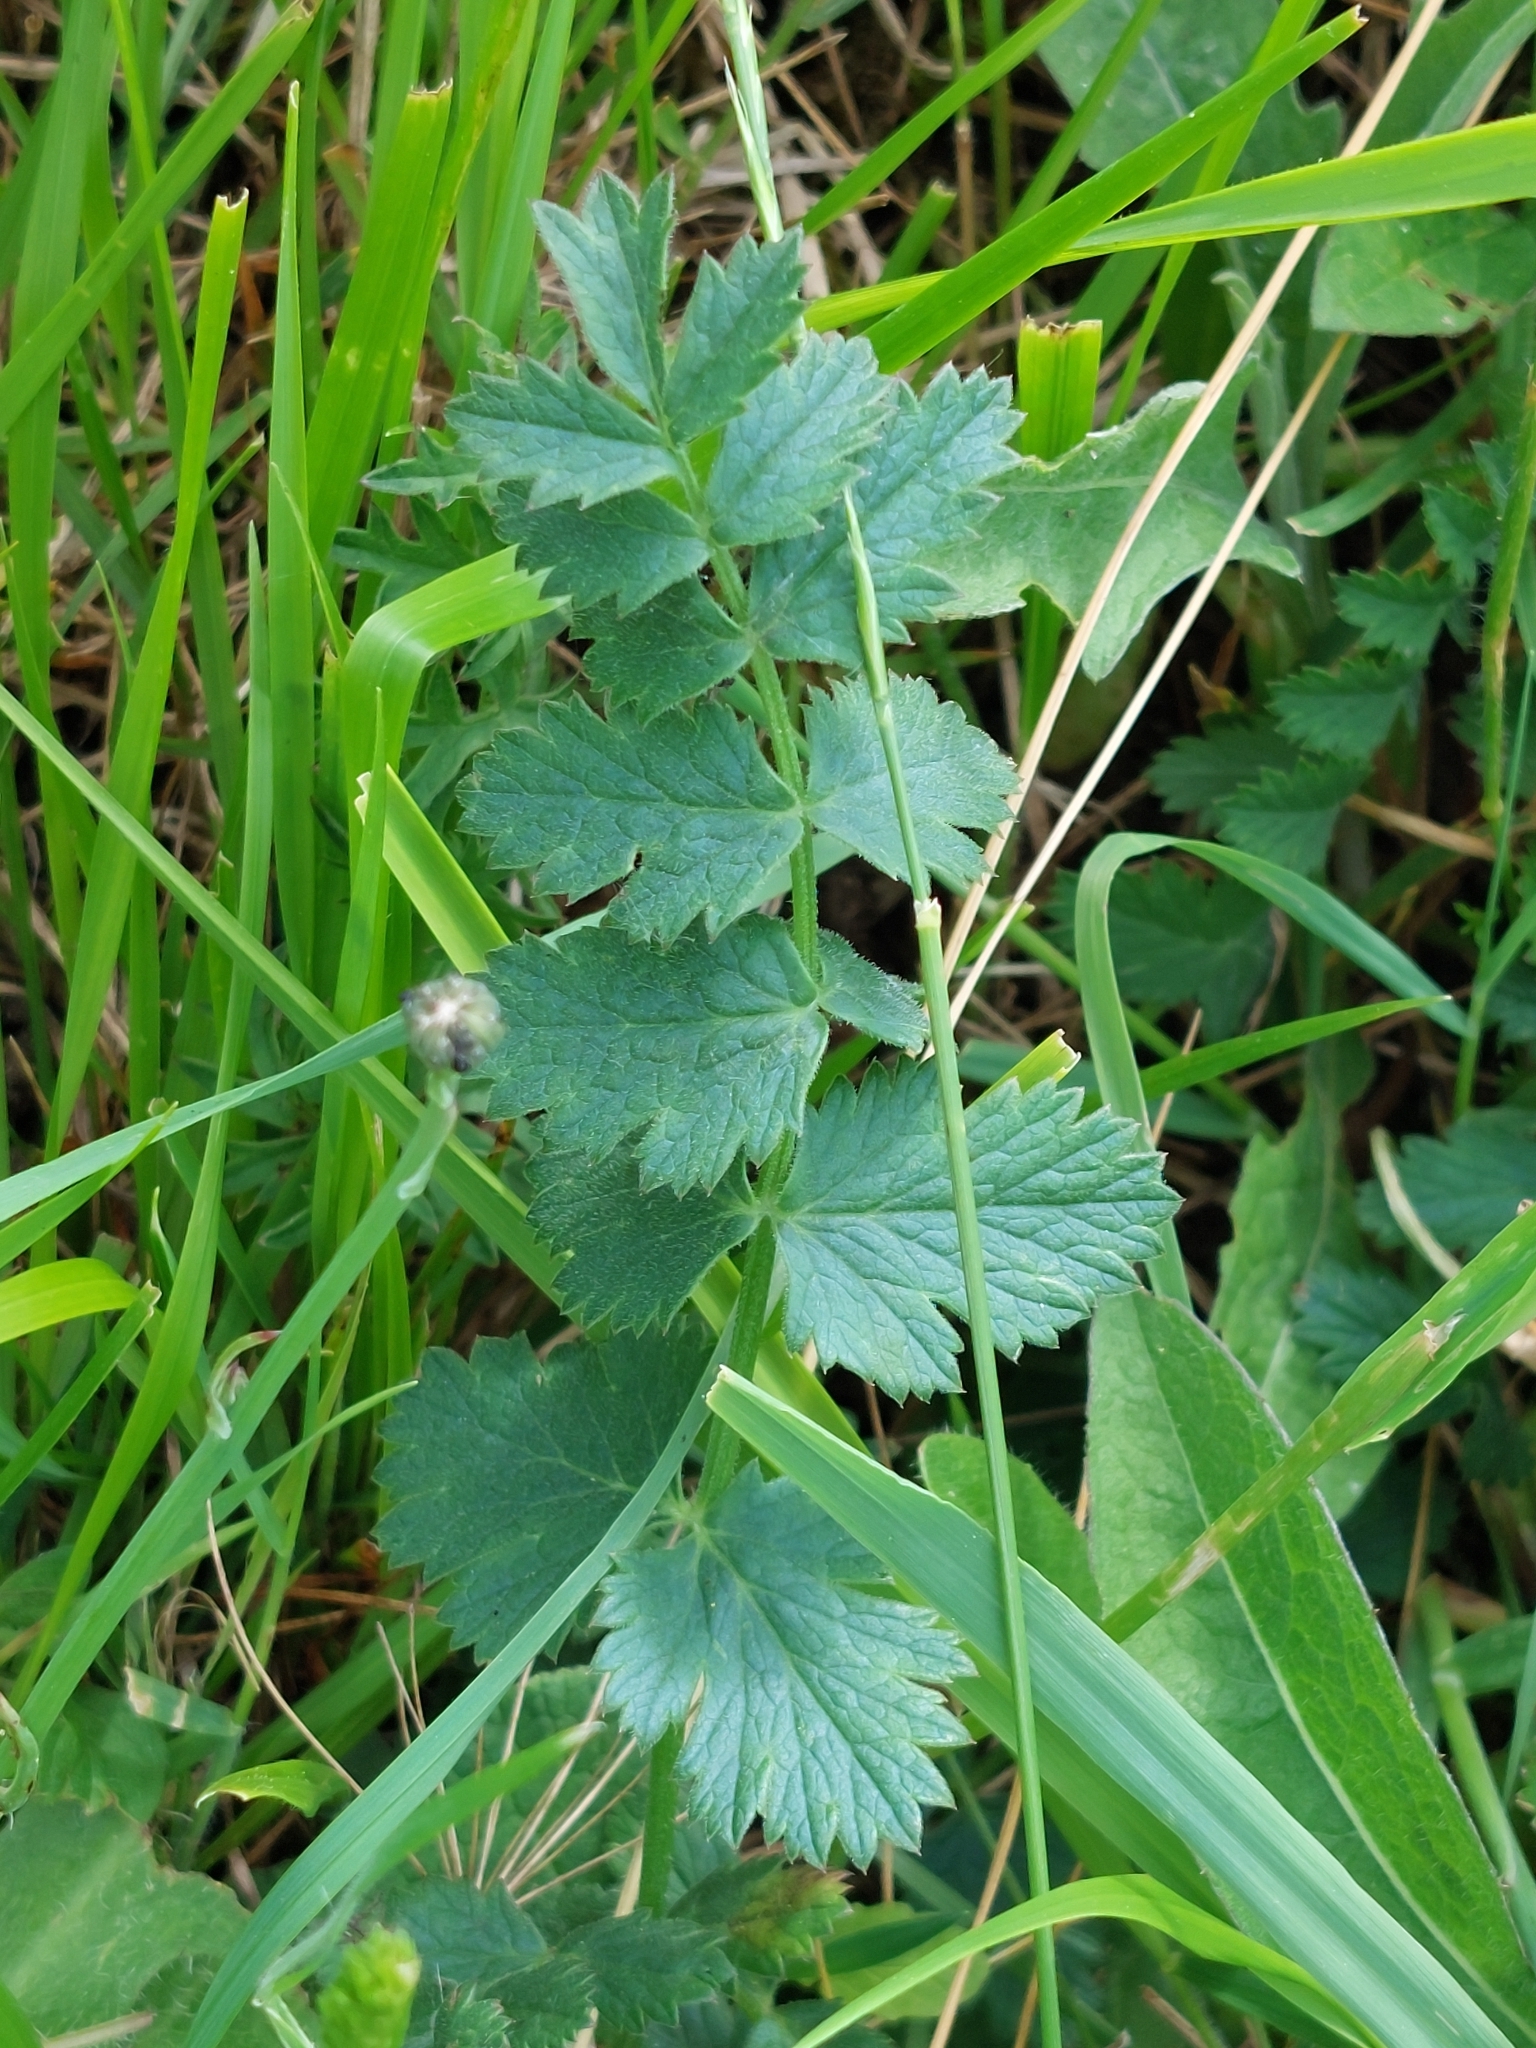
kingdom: Plantae
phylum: Tracheophyta
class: Magnoliopsida
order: Apiales
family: Apiaceae
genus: Pimpinella
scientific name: Pimpinella saxifraga
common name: Burnet-saxifrage
